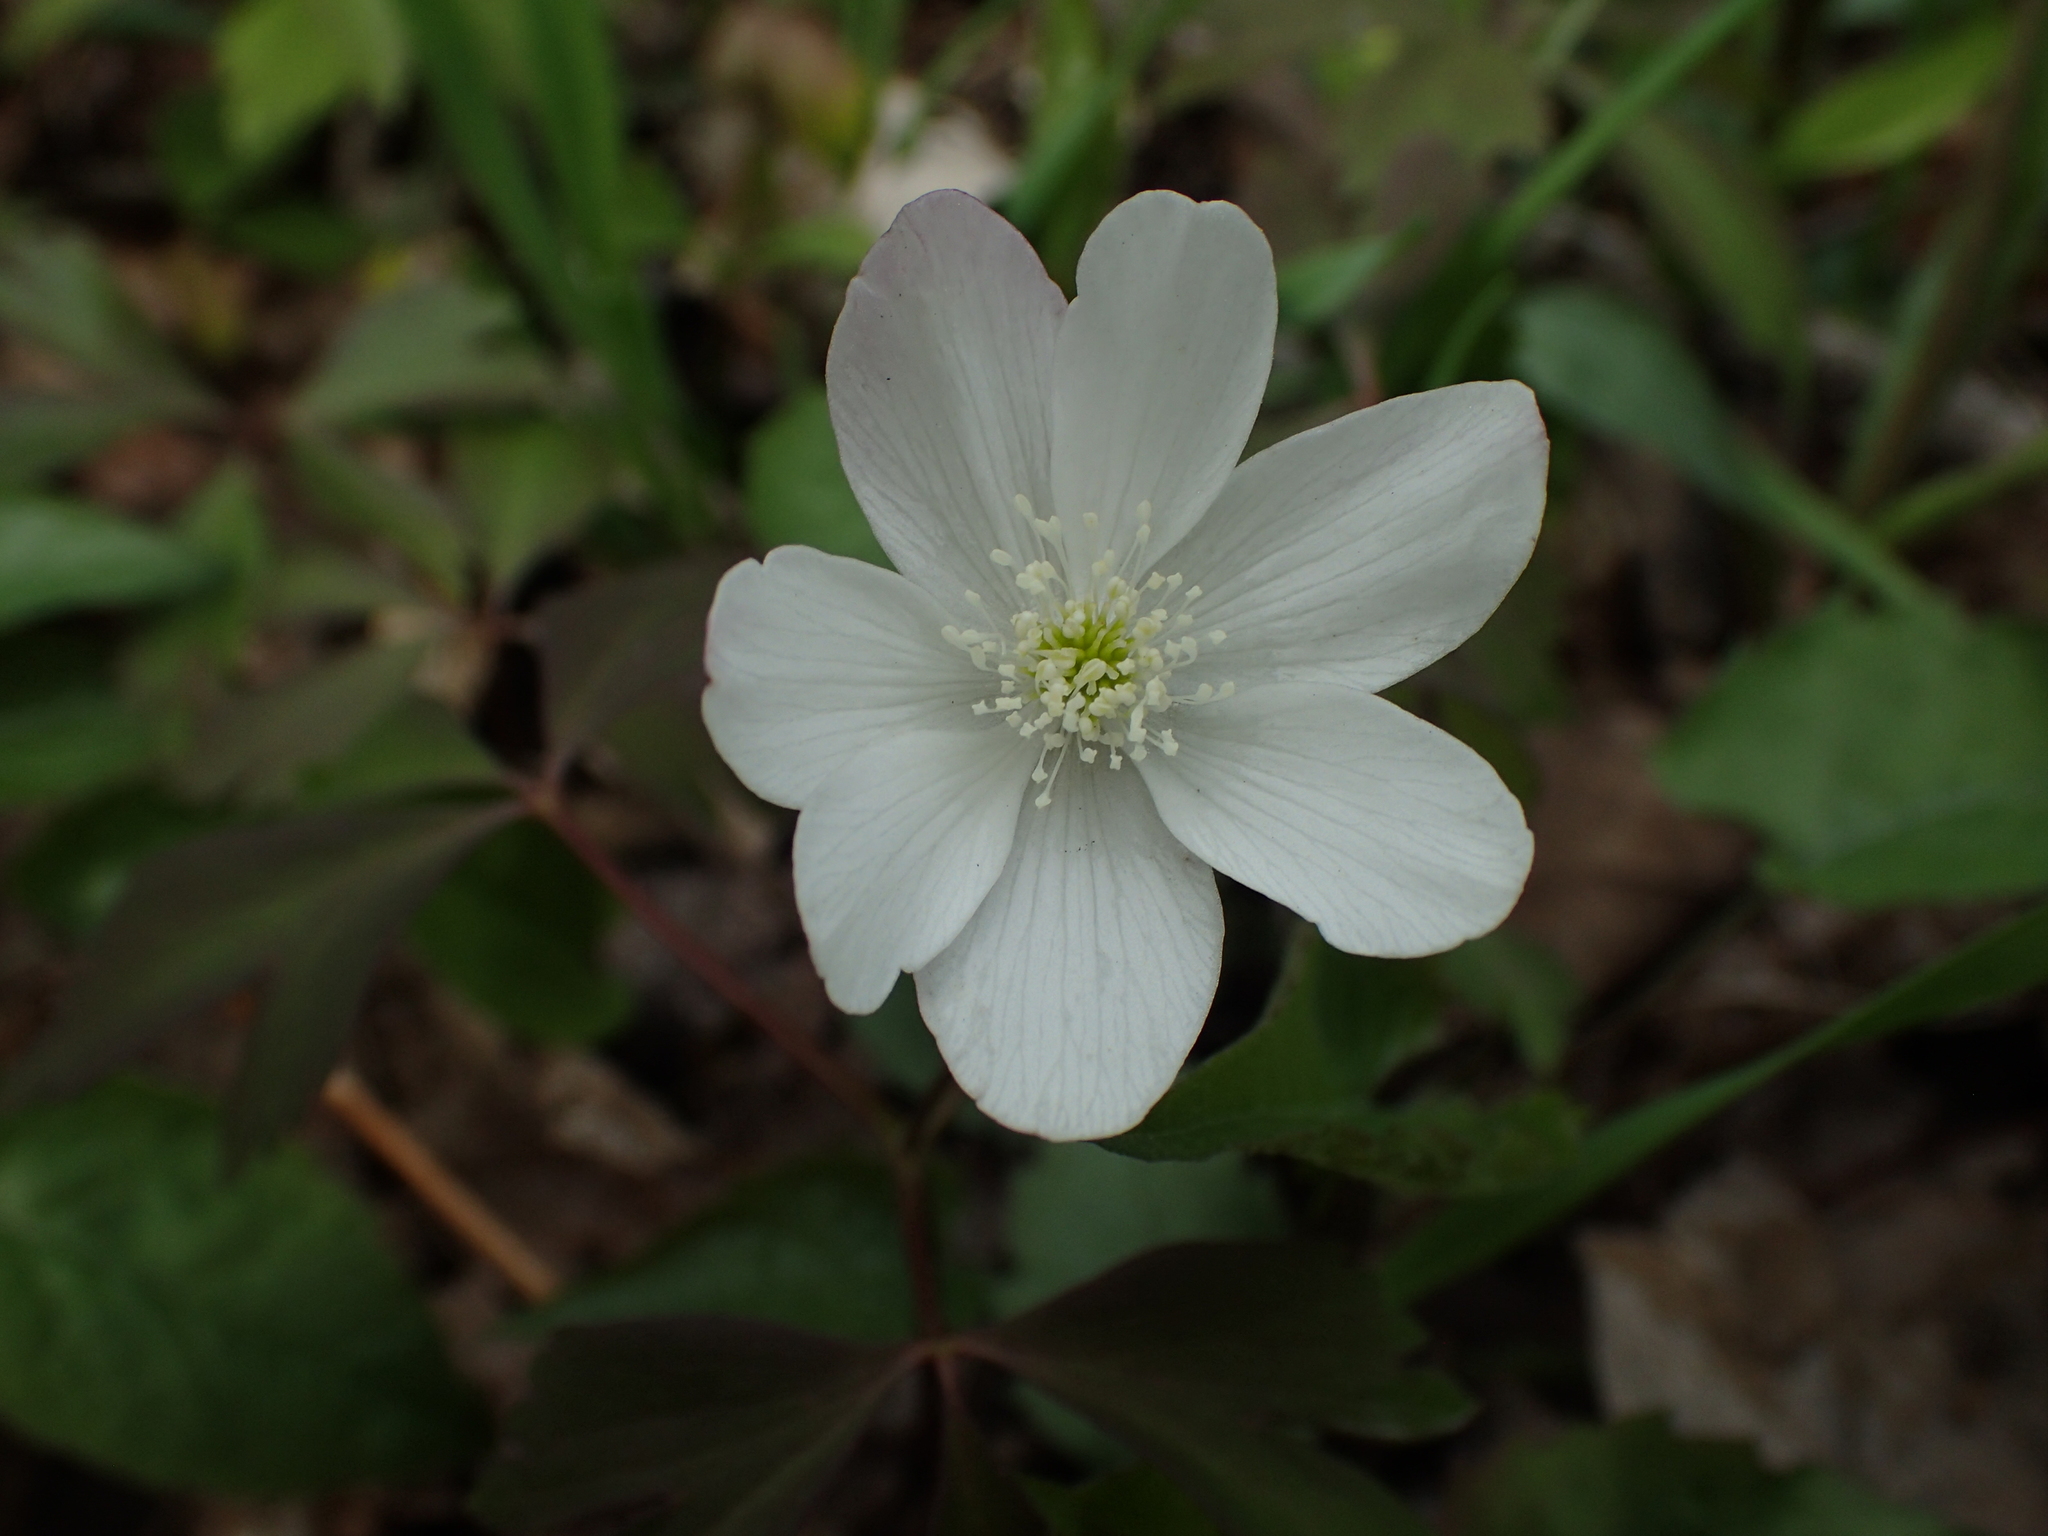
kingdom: Plantae
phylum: Tracheophyta
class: Magnoliopsida
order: Ranunculales
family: Ranunculaceae
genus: Anemone
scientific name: Anemone quinquefolia
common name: Wood anemone
